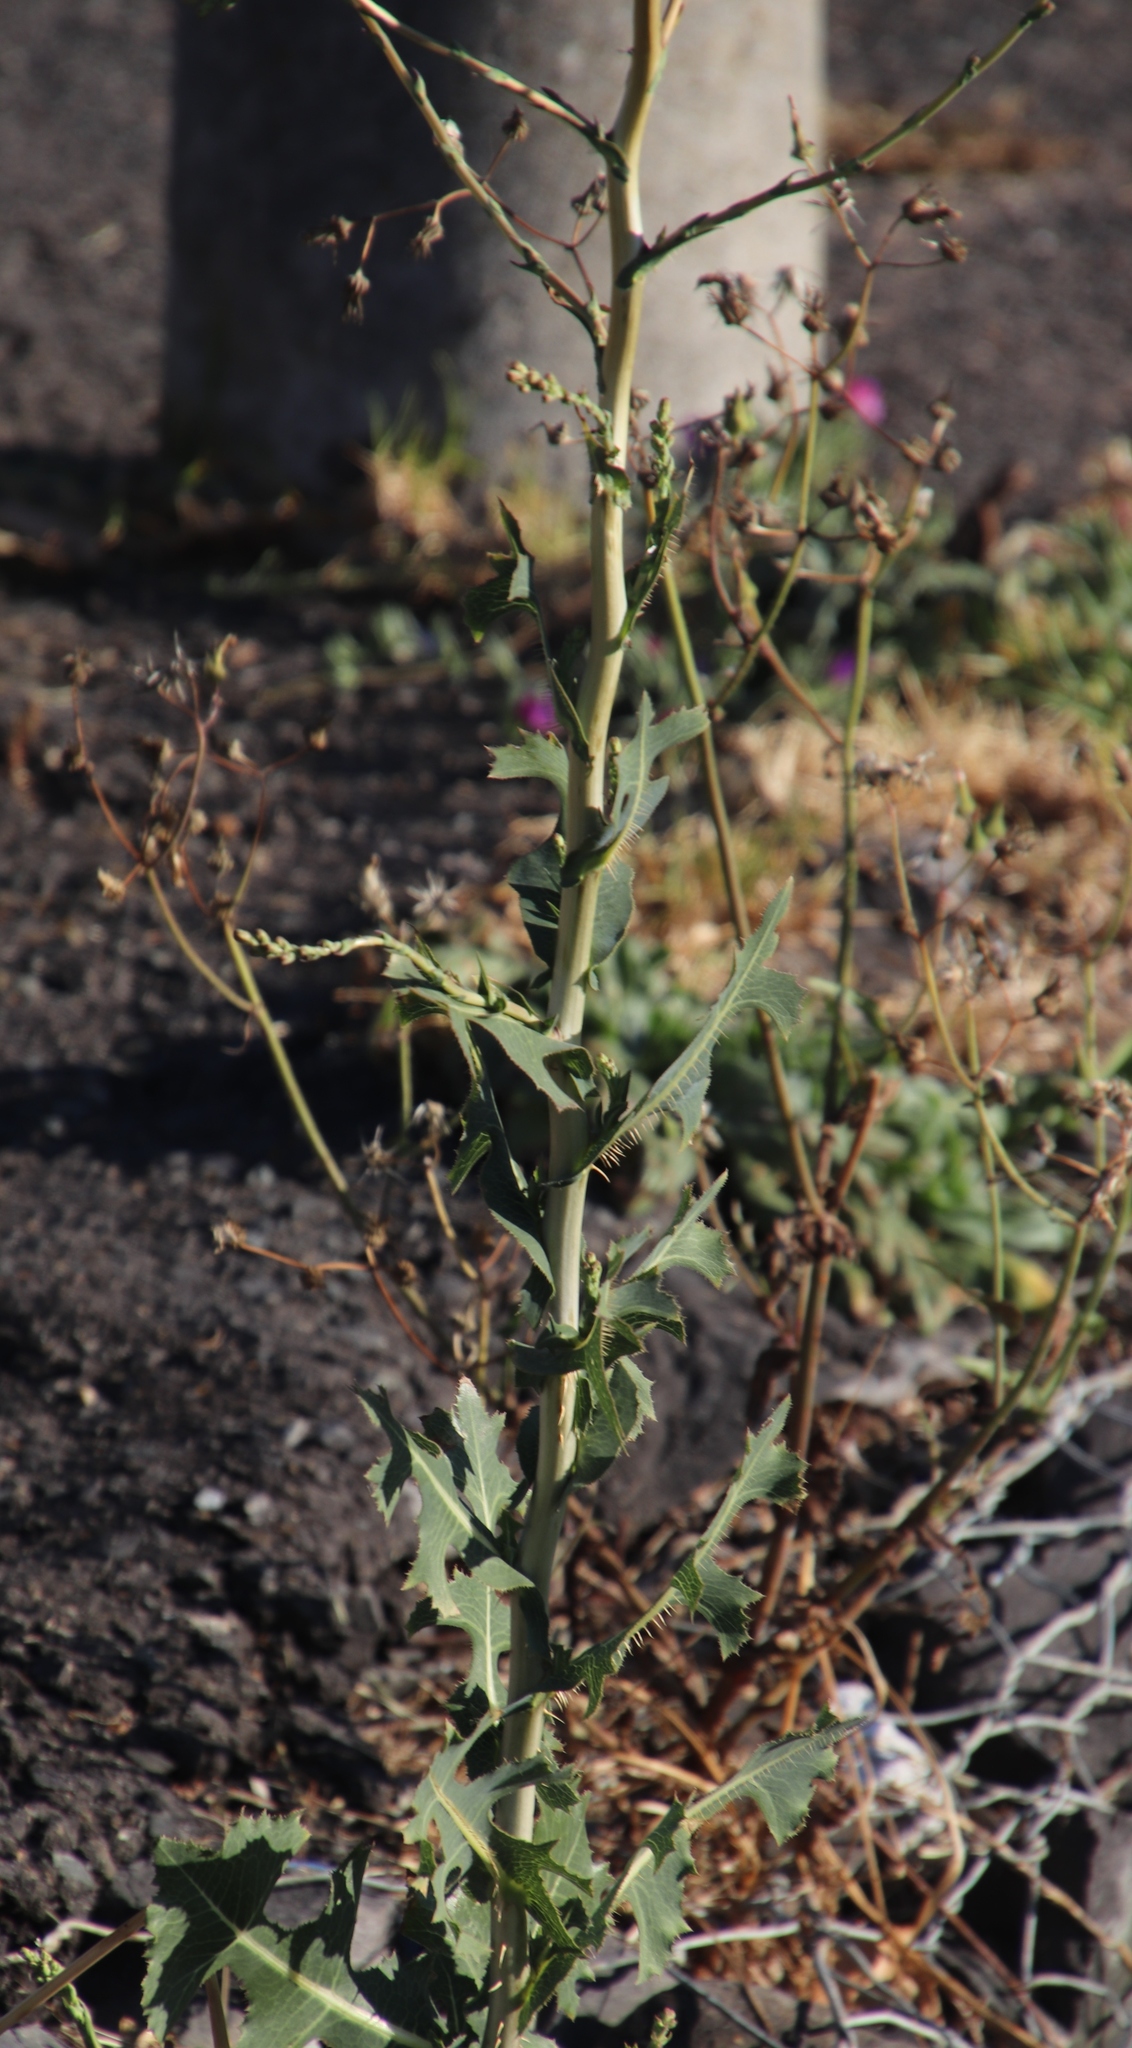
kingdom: Plantae
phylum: Tracheophyta
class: Magnoliopsida
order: Asterales
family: Asteraceae
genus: Lactuca
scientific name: Lactuca serriola
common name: Prickly lettuce
